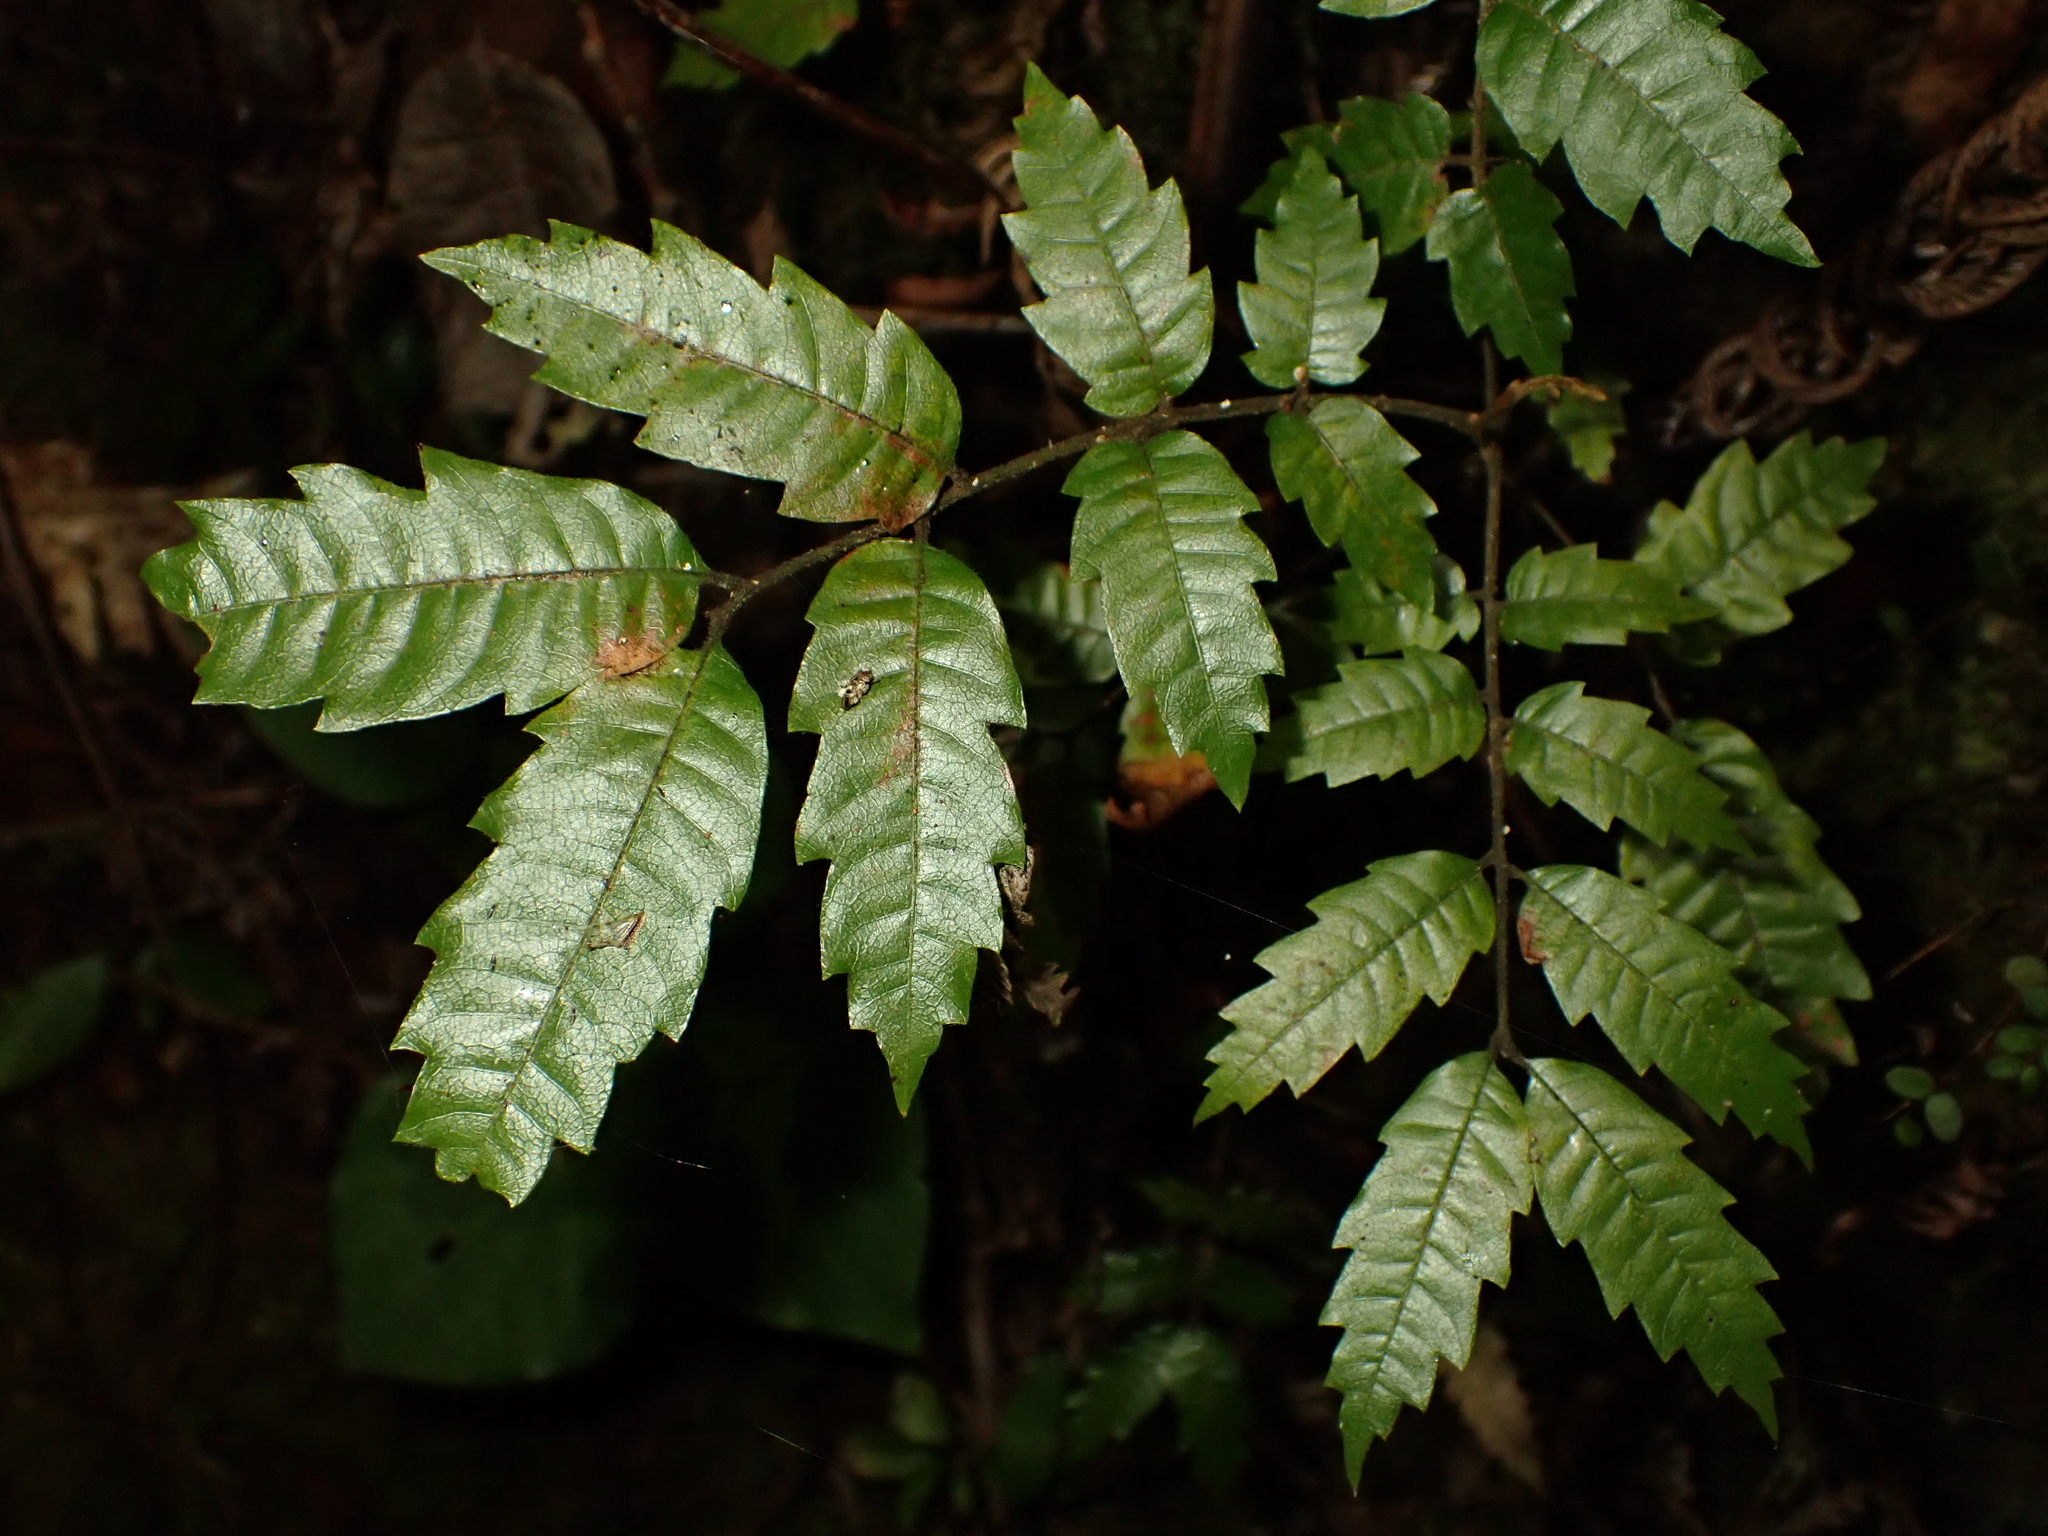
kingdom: Plantae
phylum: Tracheophyta
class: Magnoliopsida
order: Sapindales
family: Sapindaceae
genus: Alectryon
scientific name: Alectryon excelsus
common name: Three kings titoki
